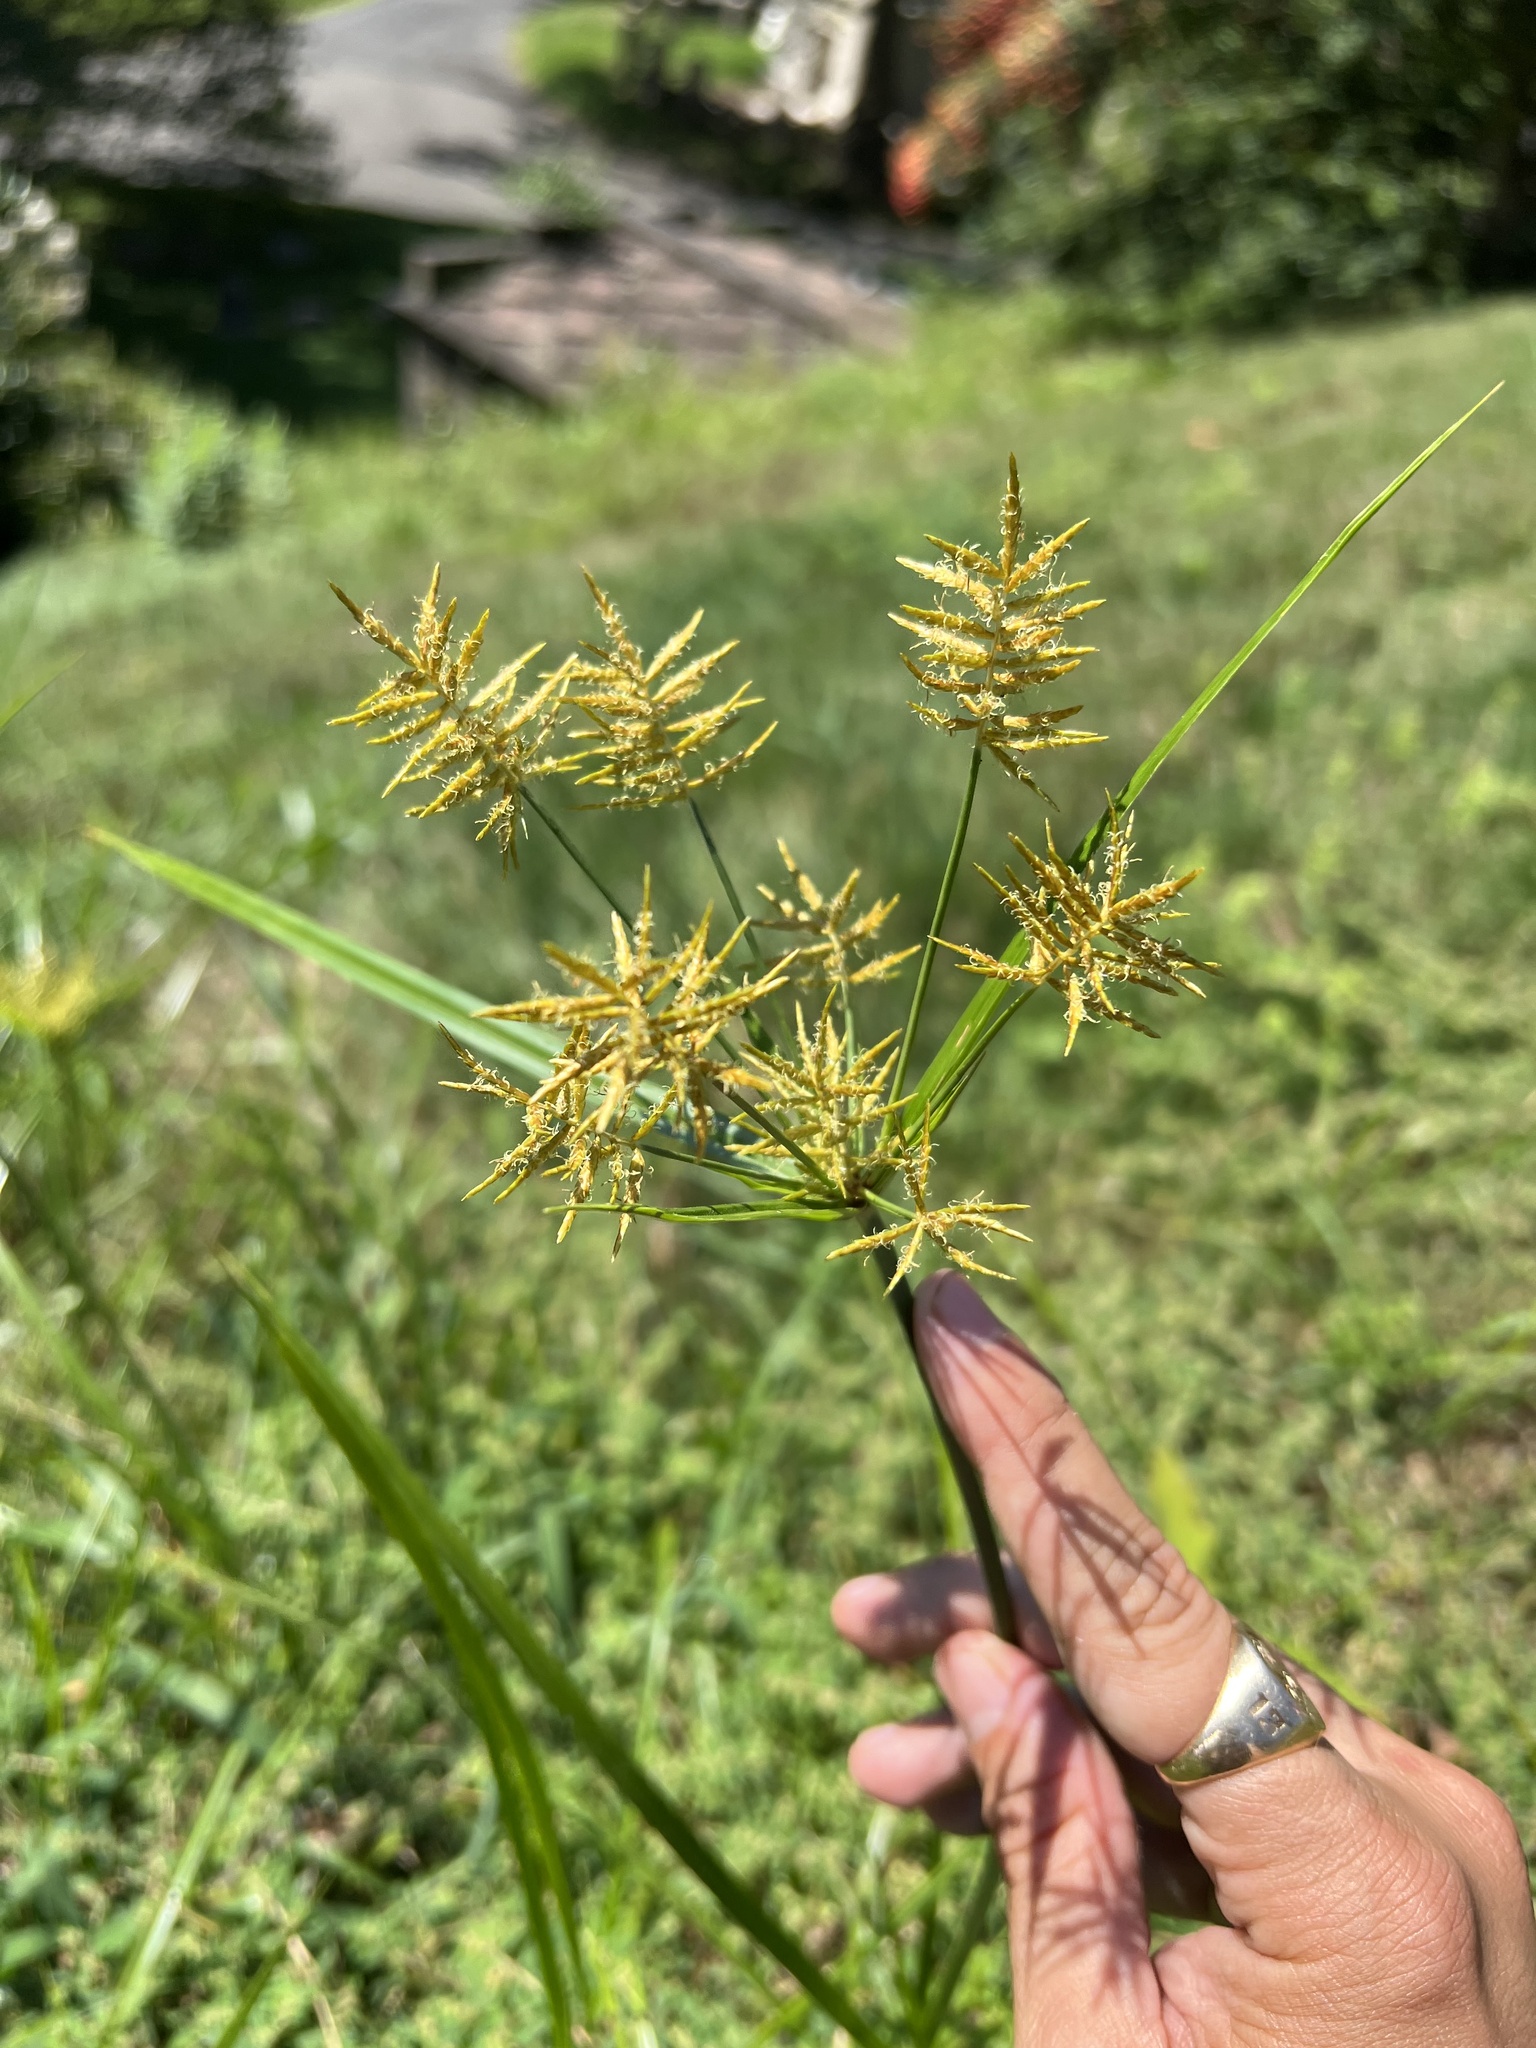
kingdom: Plantae
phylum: Tracheophyta
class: Liliopsida
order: Poales
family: Cyperaceae
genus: Cyperus
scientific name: Cyperus esculentus
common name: Yellow nutsedge
